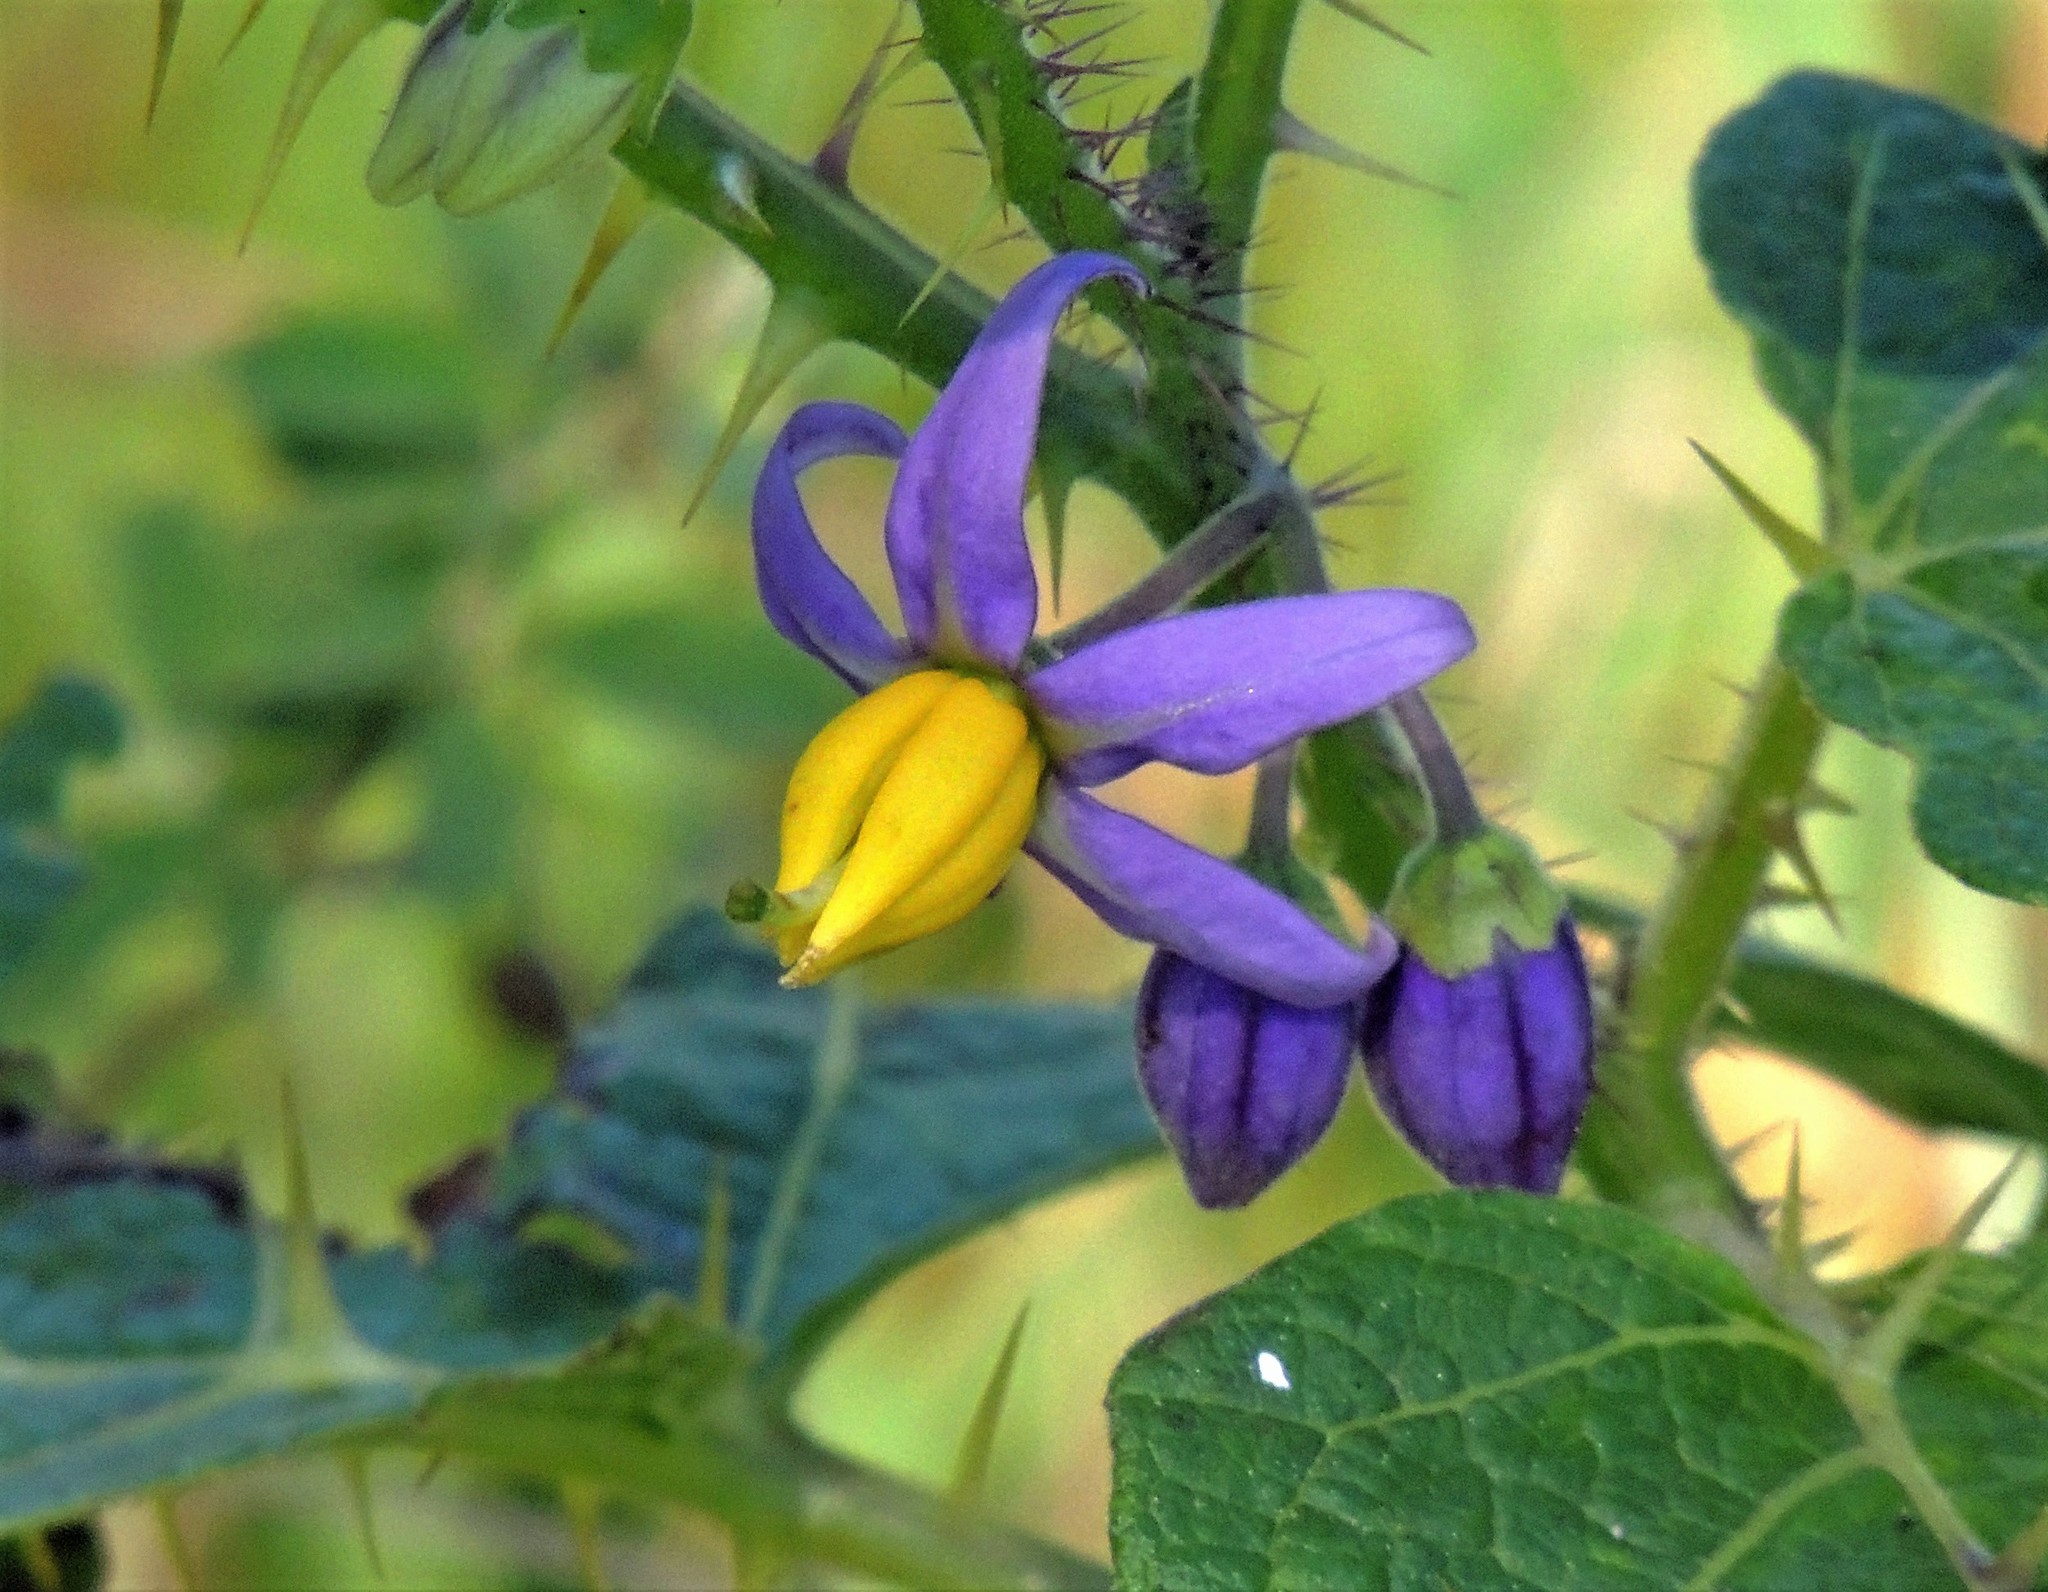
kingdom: Plantae
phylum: Tracheophyta
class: Magnoliopsida
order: Solanales
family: Solanaceae
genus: Solanum
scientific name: Solanum palinacanthum
